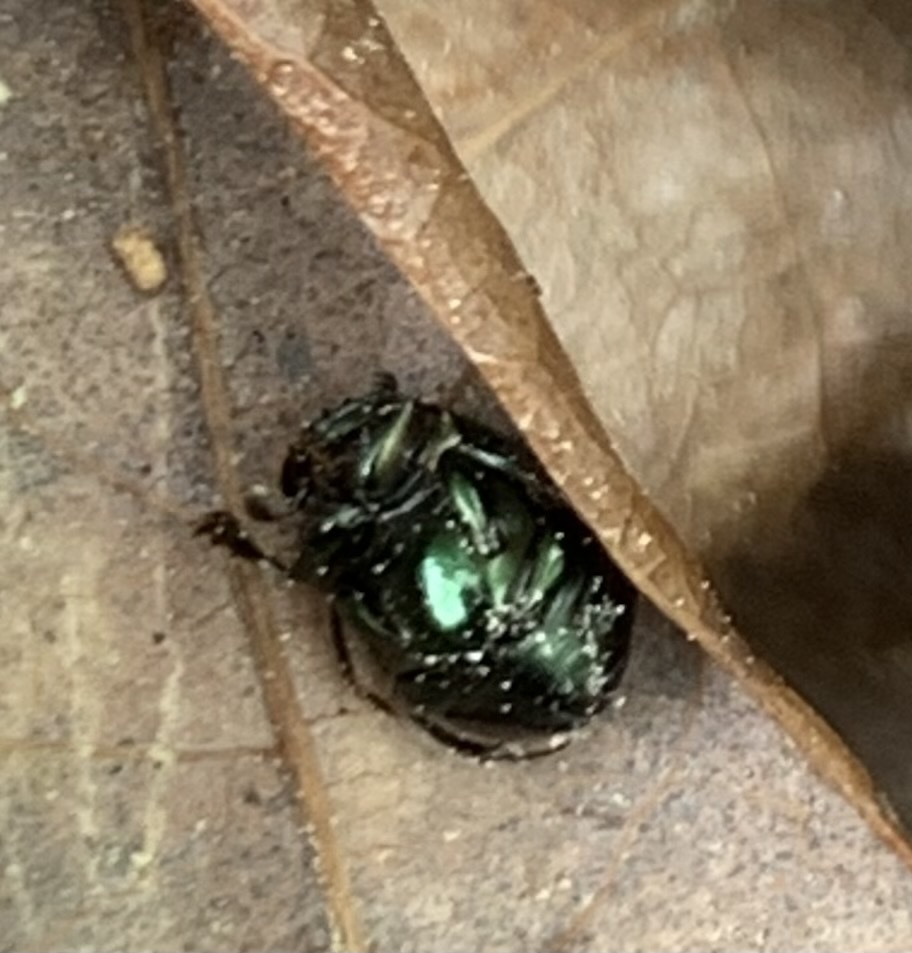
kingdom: Animalia
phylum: Arthropoda
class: Insecta
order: Coleoptera
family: Scarabaeidae
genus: Canthon
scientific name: Canthon viridis
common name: Tumblebug
